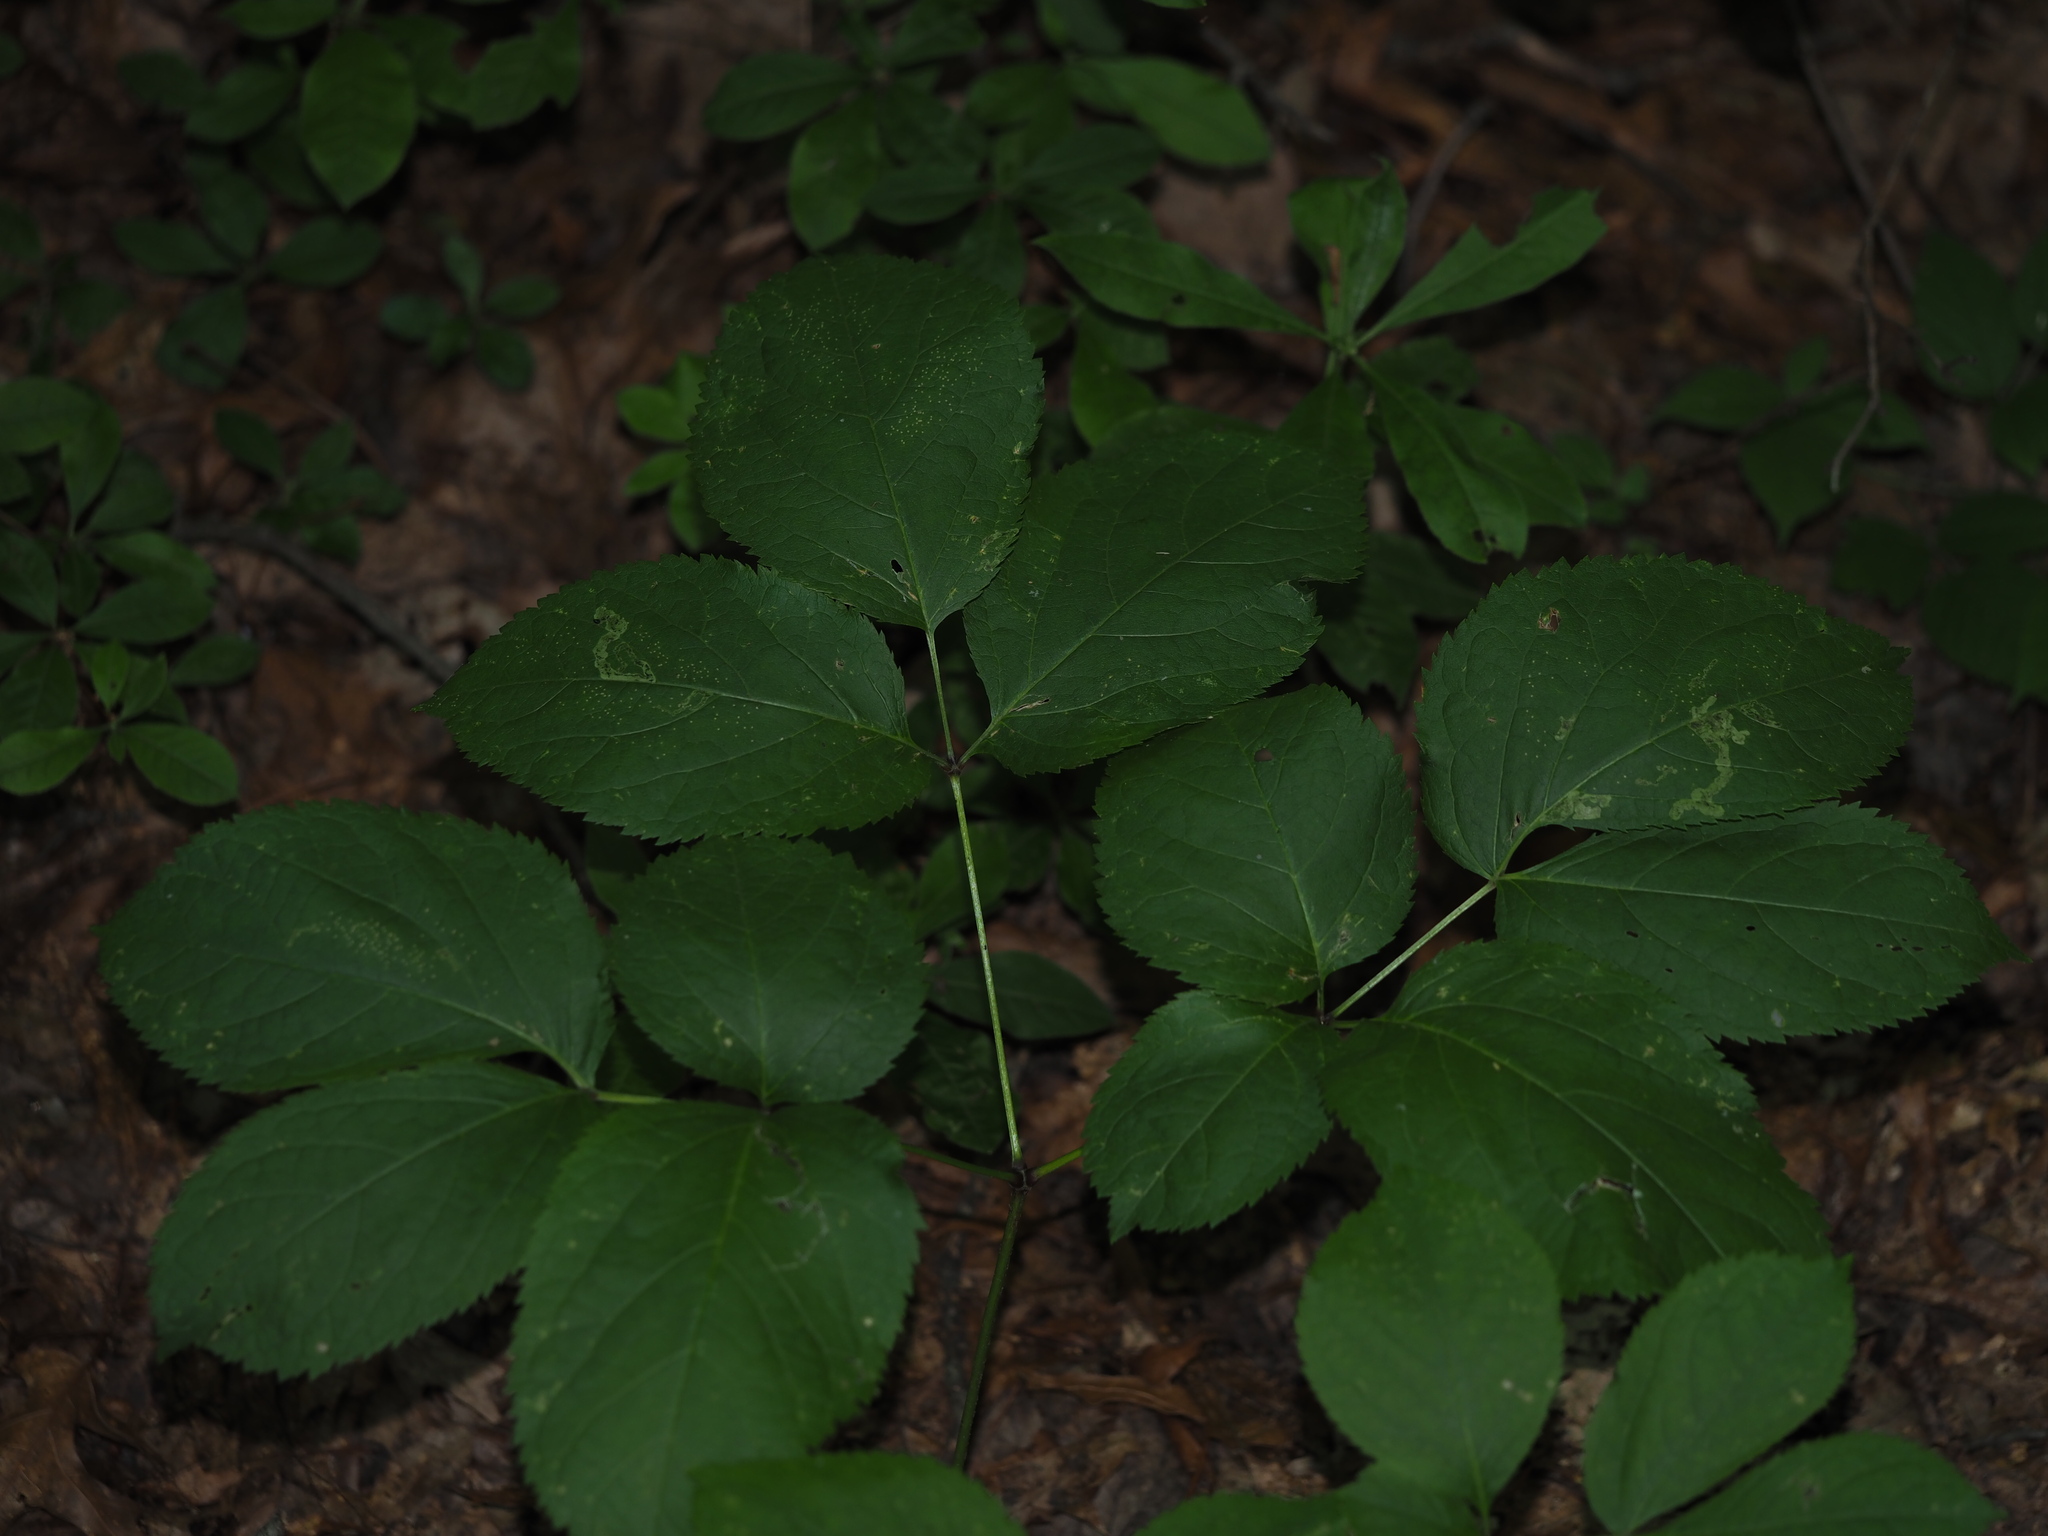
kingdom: Plantae
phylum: Tracheophyta
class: Magnoliopsida
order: Apiales
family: Araliaceae
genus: Aralia
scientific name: Aralia nudicaulis
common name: Wild sarsaparilla
